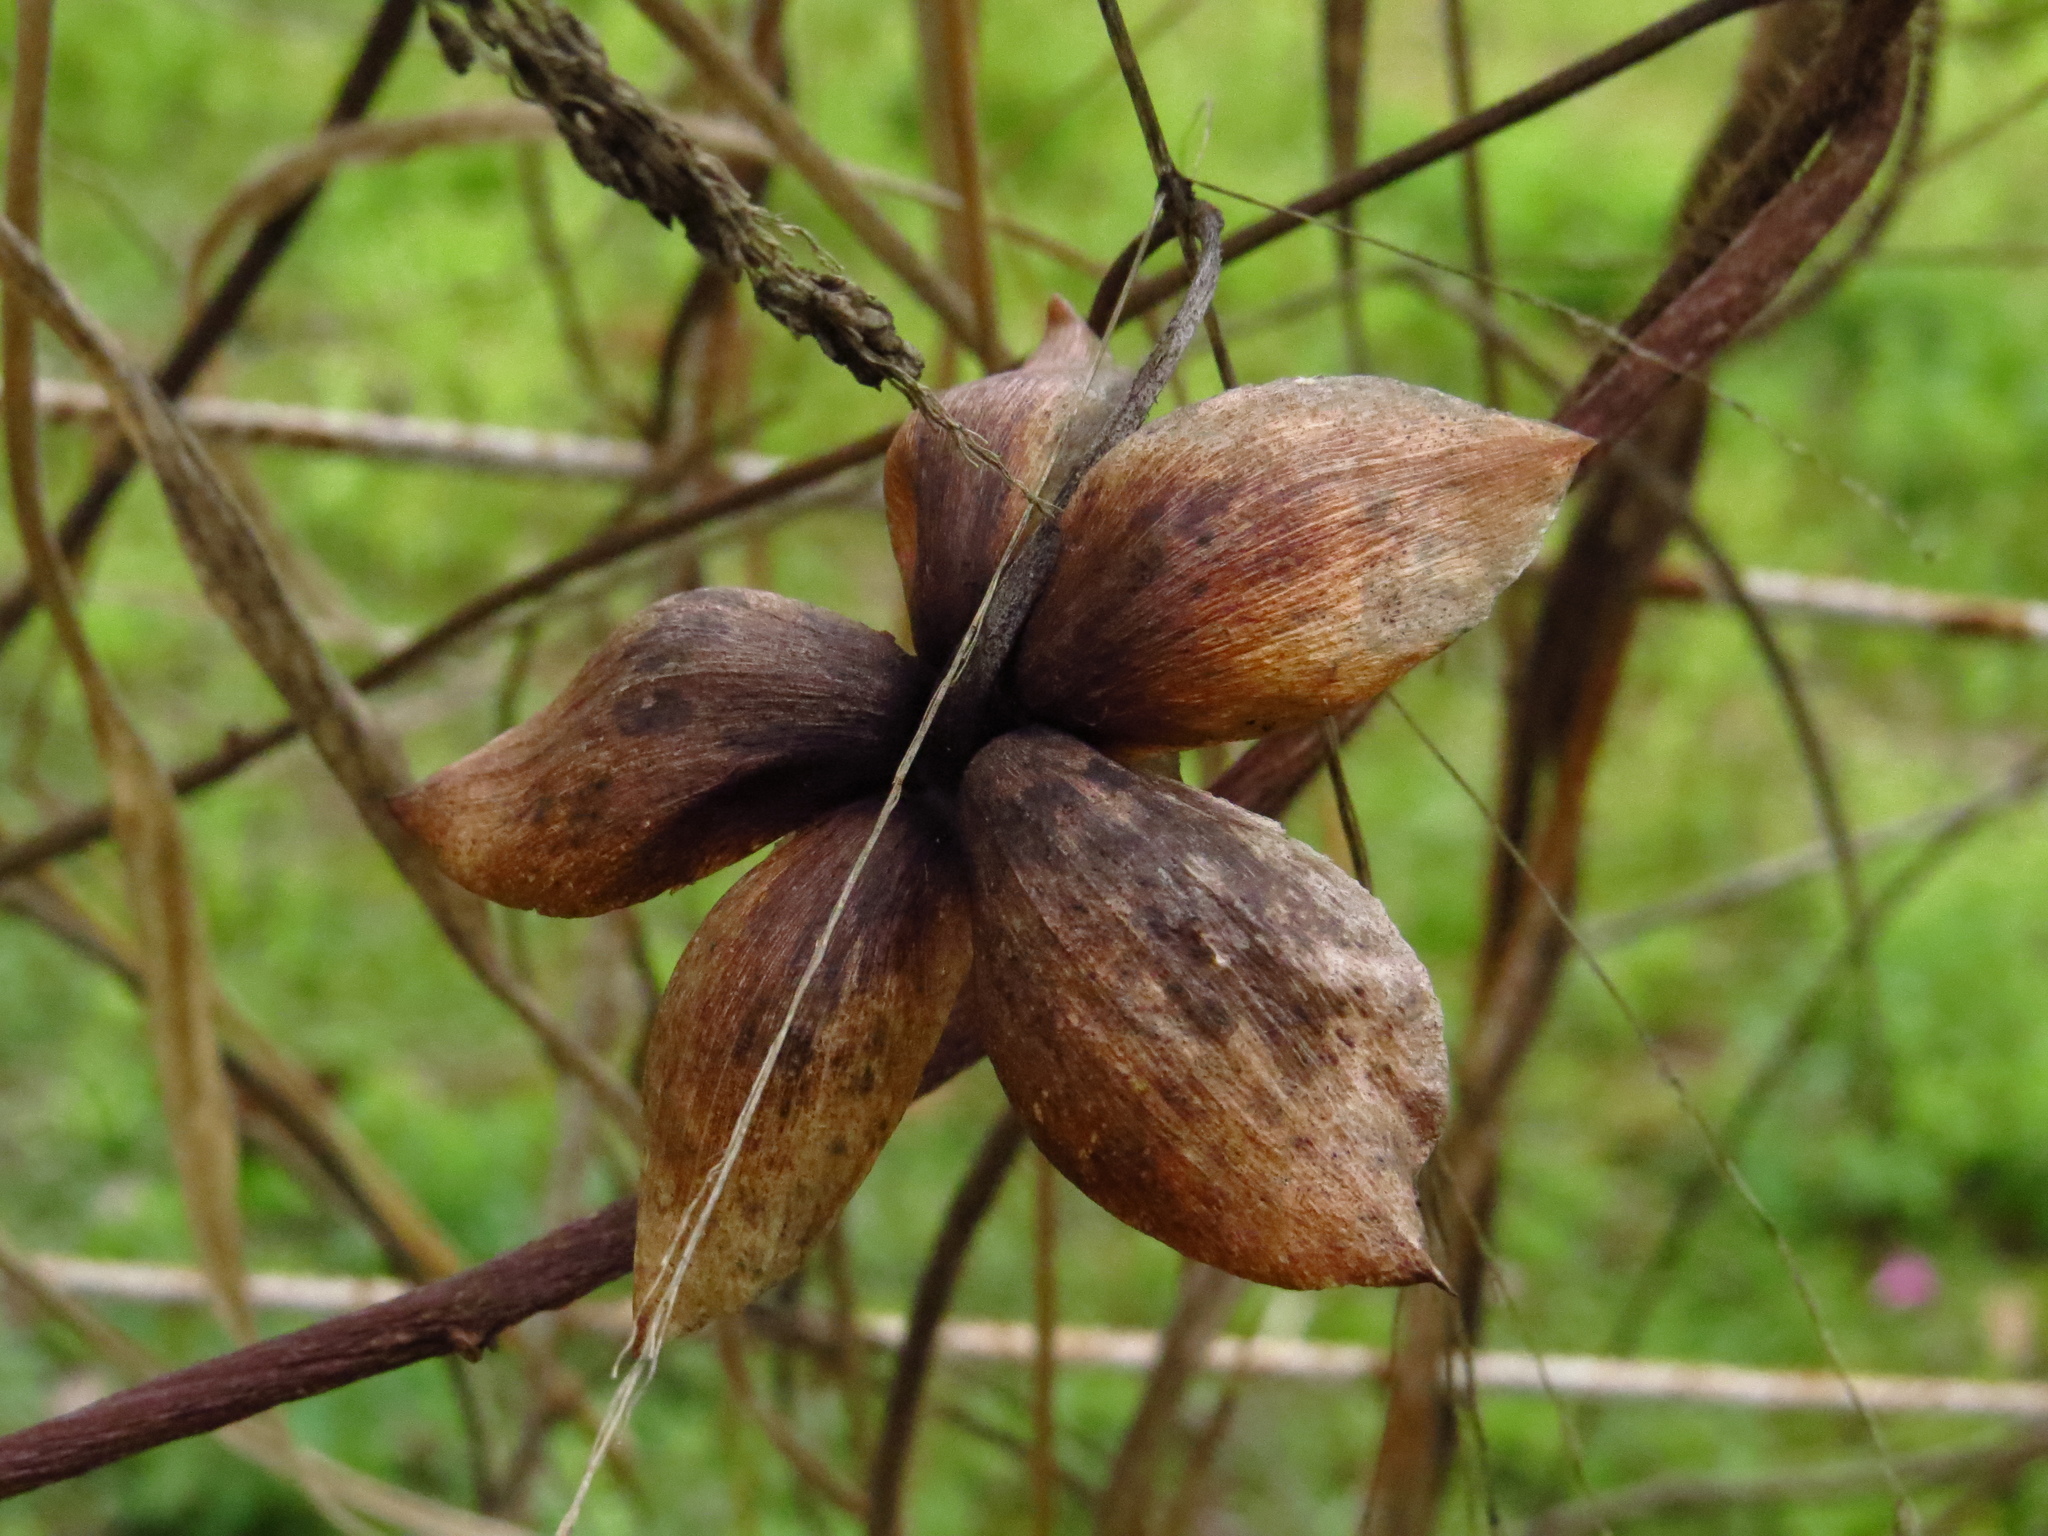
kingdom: Plantae
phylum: Tracheophyta
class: Magnoliopsida
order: Solanales
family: Convolvulaceae
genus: Distimake
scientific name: Distimake dissectus
